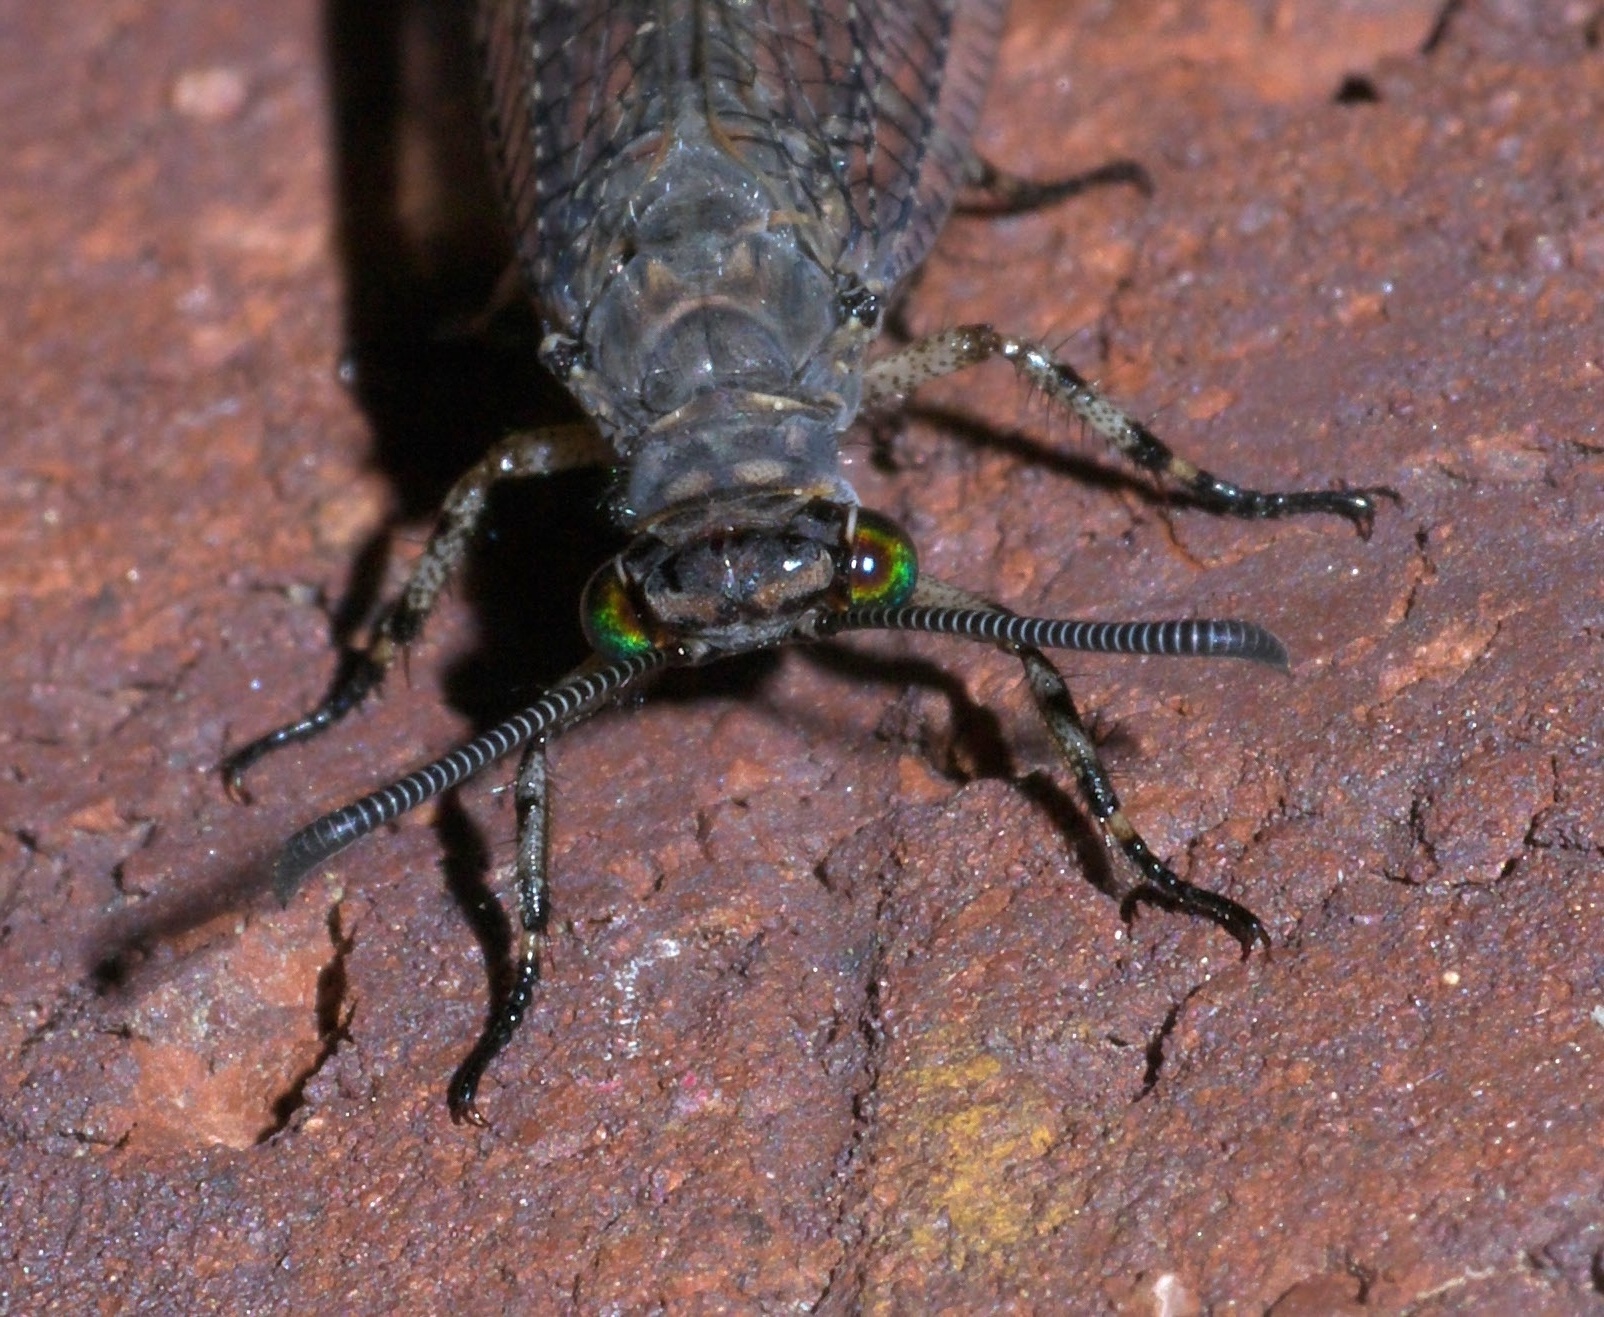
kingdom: Animalia
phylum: Arthropoda
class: Insecta
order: Neuroptera
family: Myrmeleontidae
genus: Myrmeleon
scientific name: Myrmeleon immaculatus
